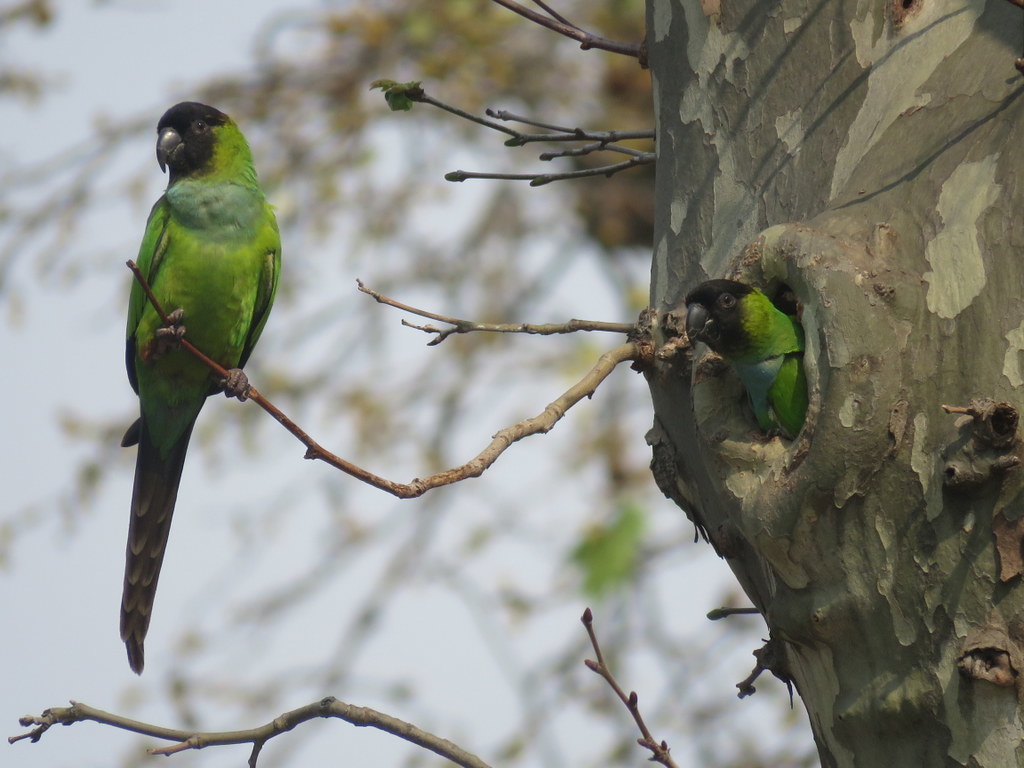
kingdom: Animalia
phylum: Chordata
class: Aves
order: Psittaciformes
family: Psittacidae
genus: Nandayus
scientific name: Nandayus nenday
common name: Nanday parakeet
